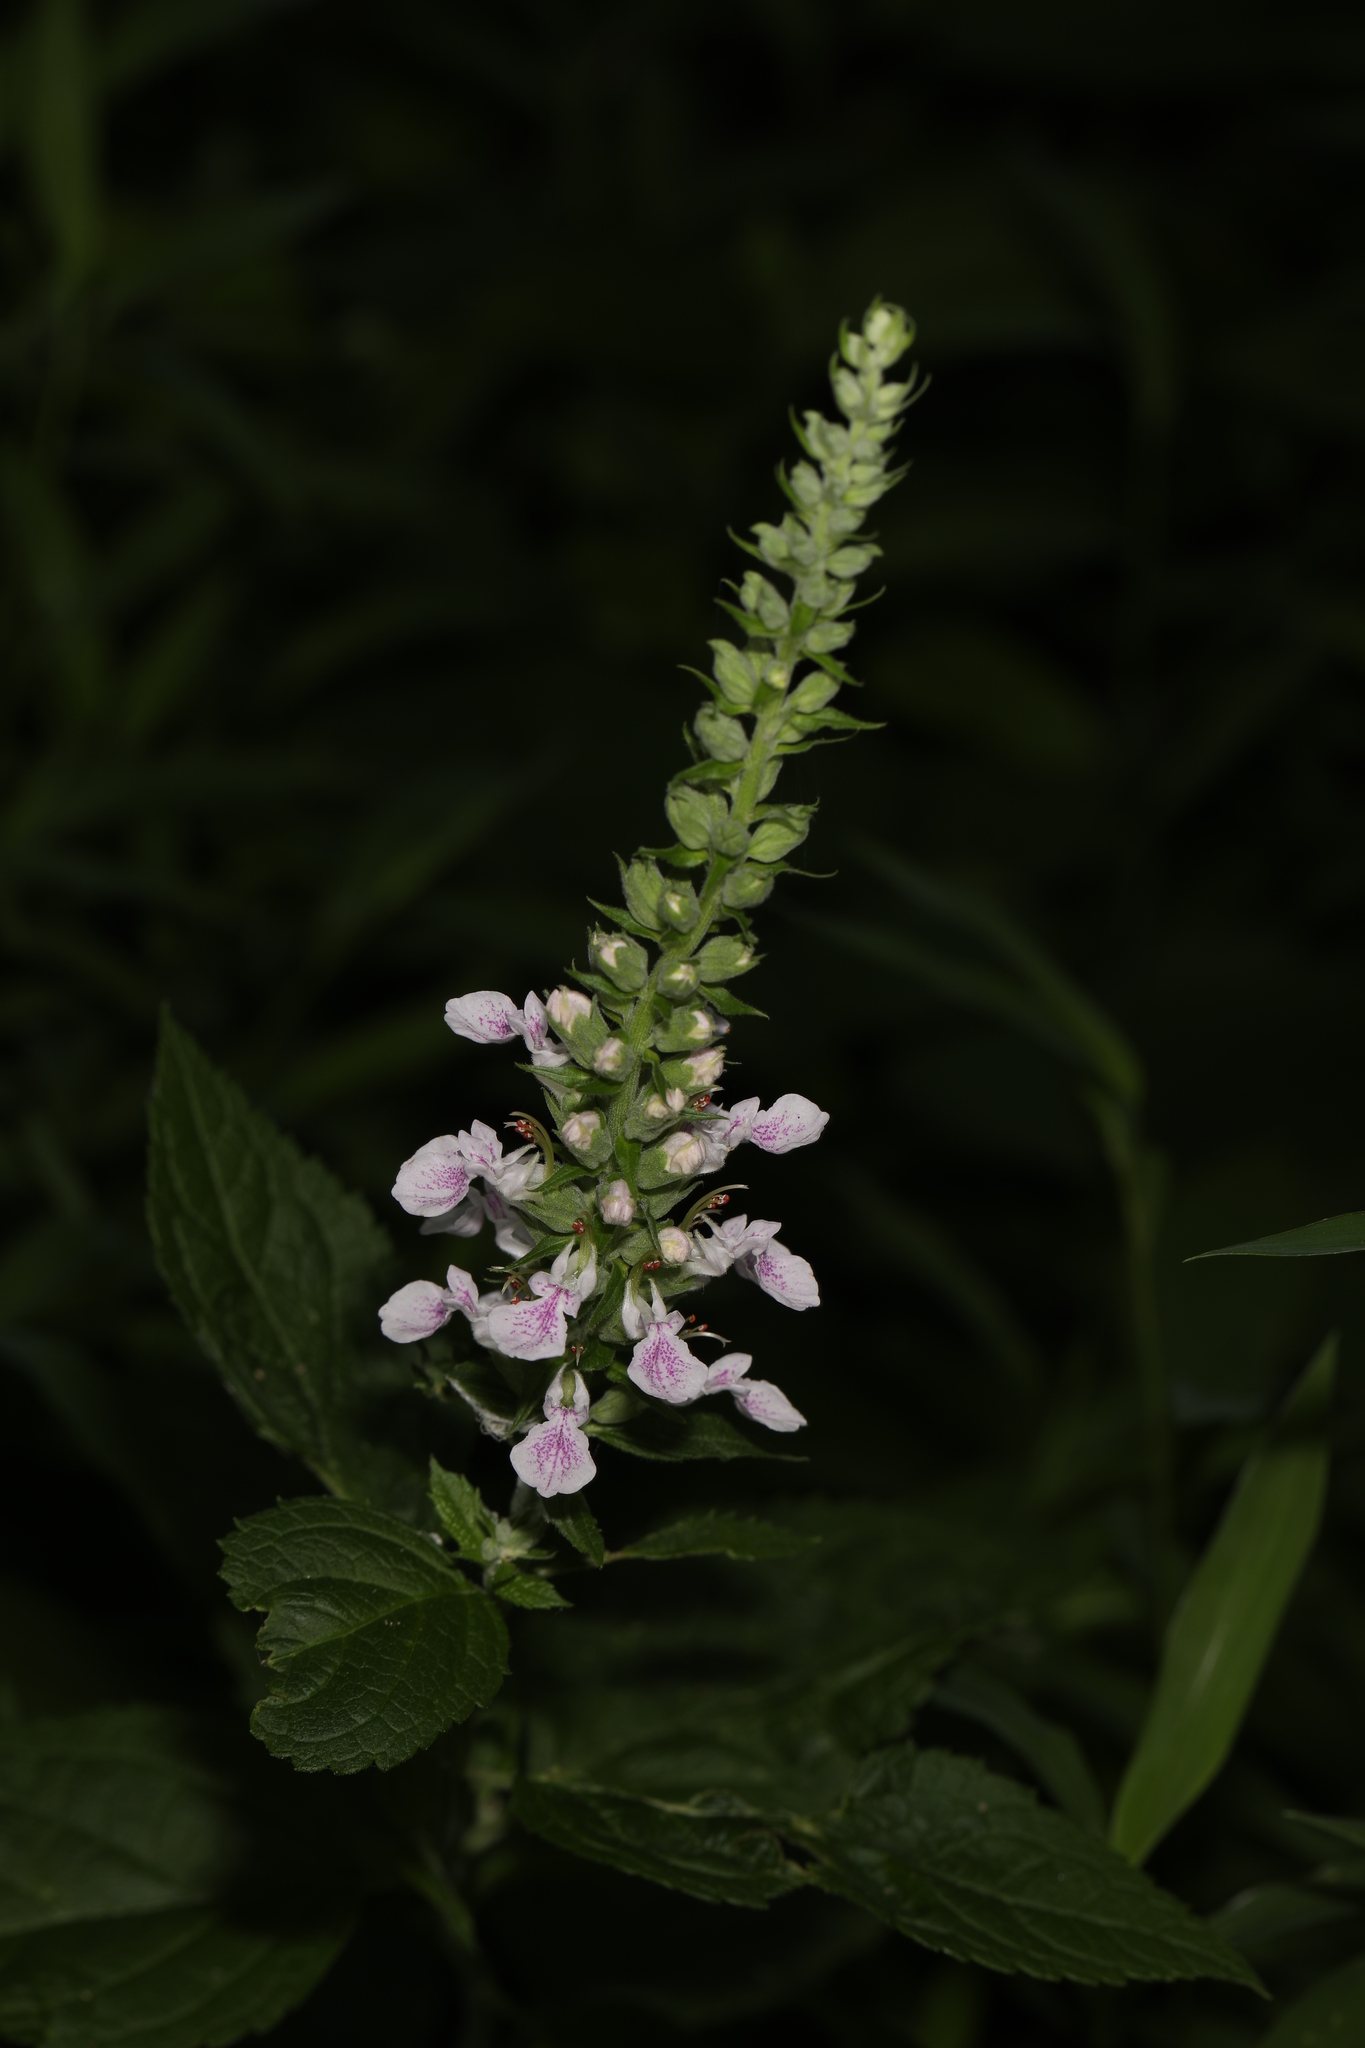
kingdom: Plantae
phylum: Tracheophyta
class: Magnoliopsida
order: Lamiales
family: Lamiaceae
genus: Teucrium
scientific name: Teucrium canadense
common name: American germander
